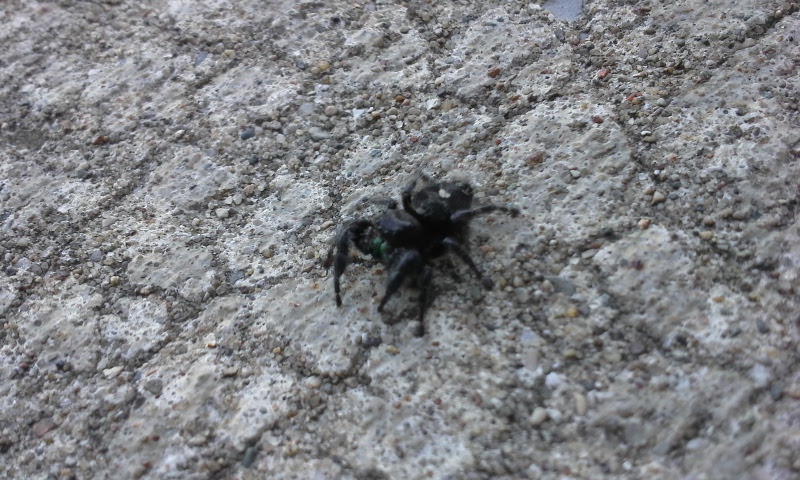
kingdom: Animalia
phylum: Arthropoda
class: Arachnida
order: Araneae
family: Salticidae
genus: Phidippus
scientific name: Phidippus audax
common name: Bold jumper
